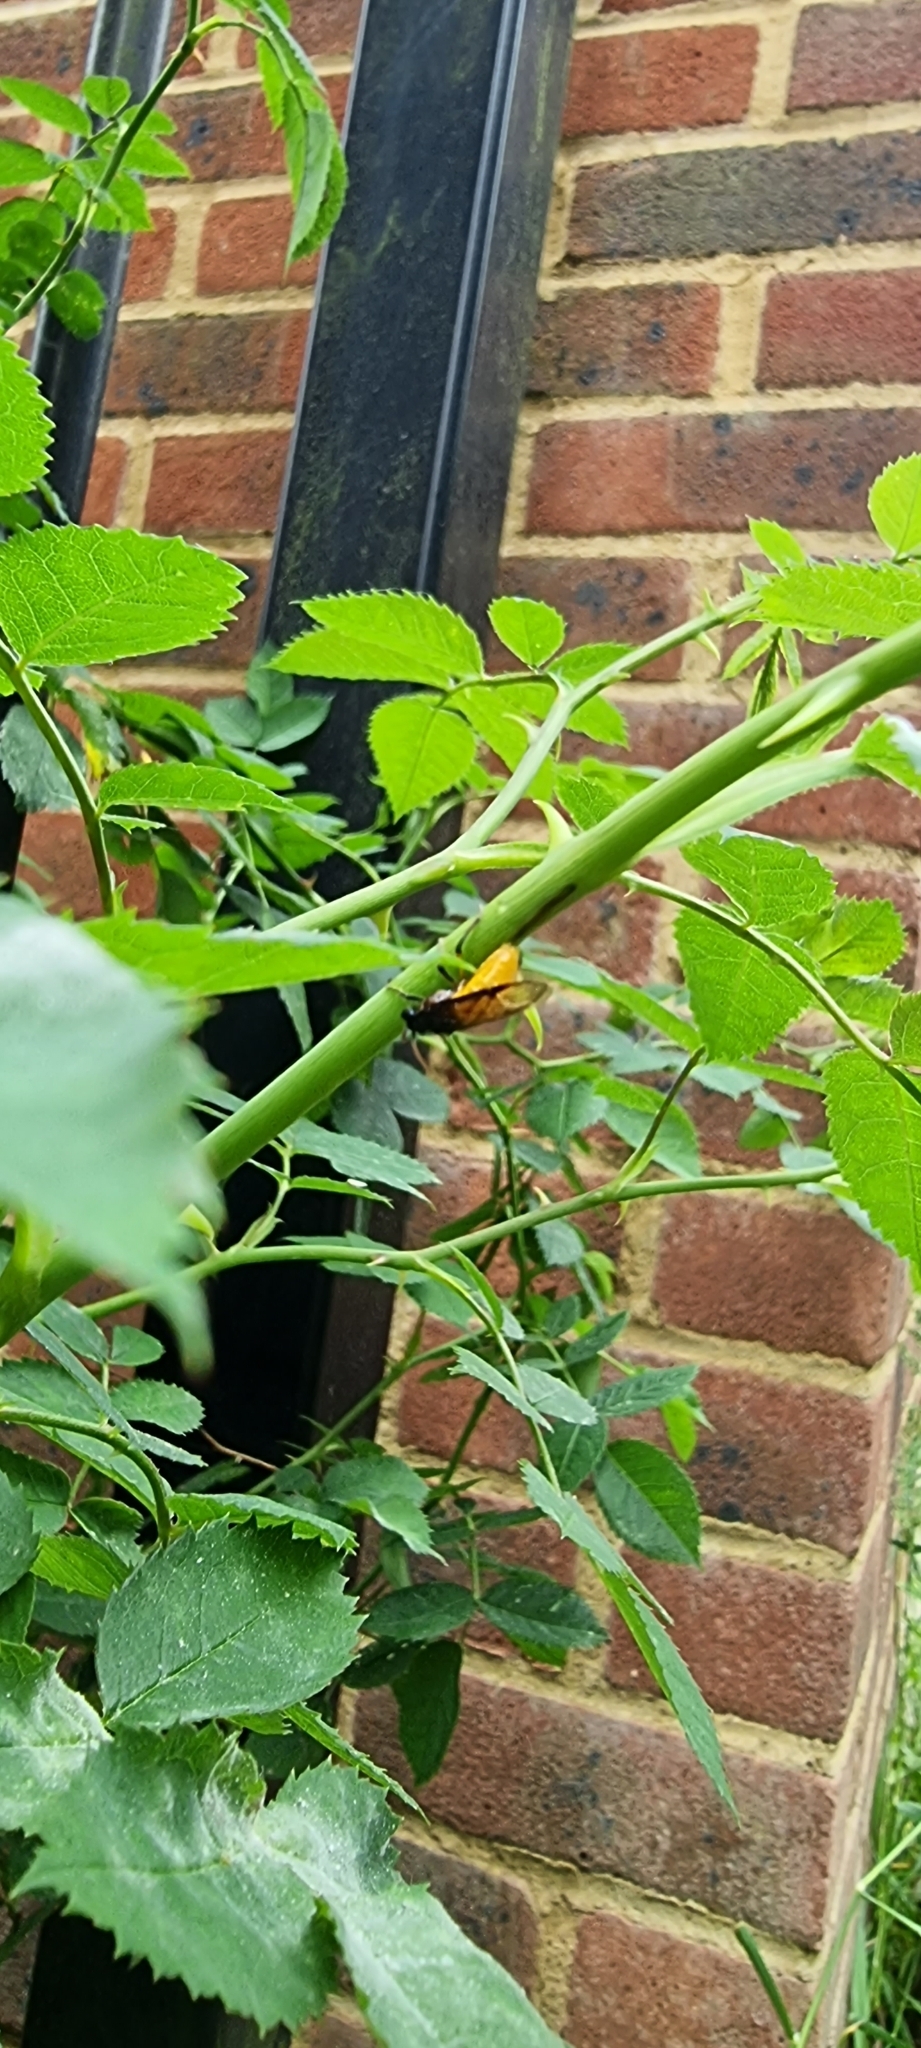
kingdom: Animalia
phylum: Arthropoda
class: Insecta
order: Hymenoptera
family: Argidae
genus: Arge
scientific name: Arge pagana
